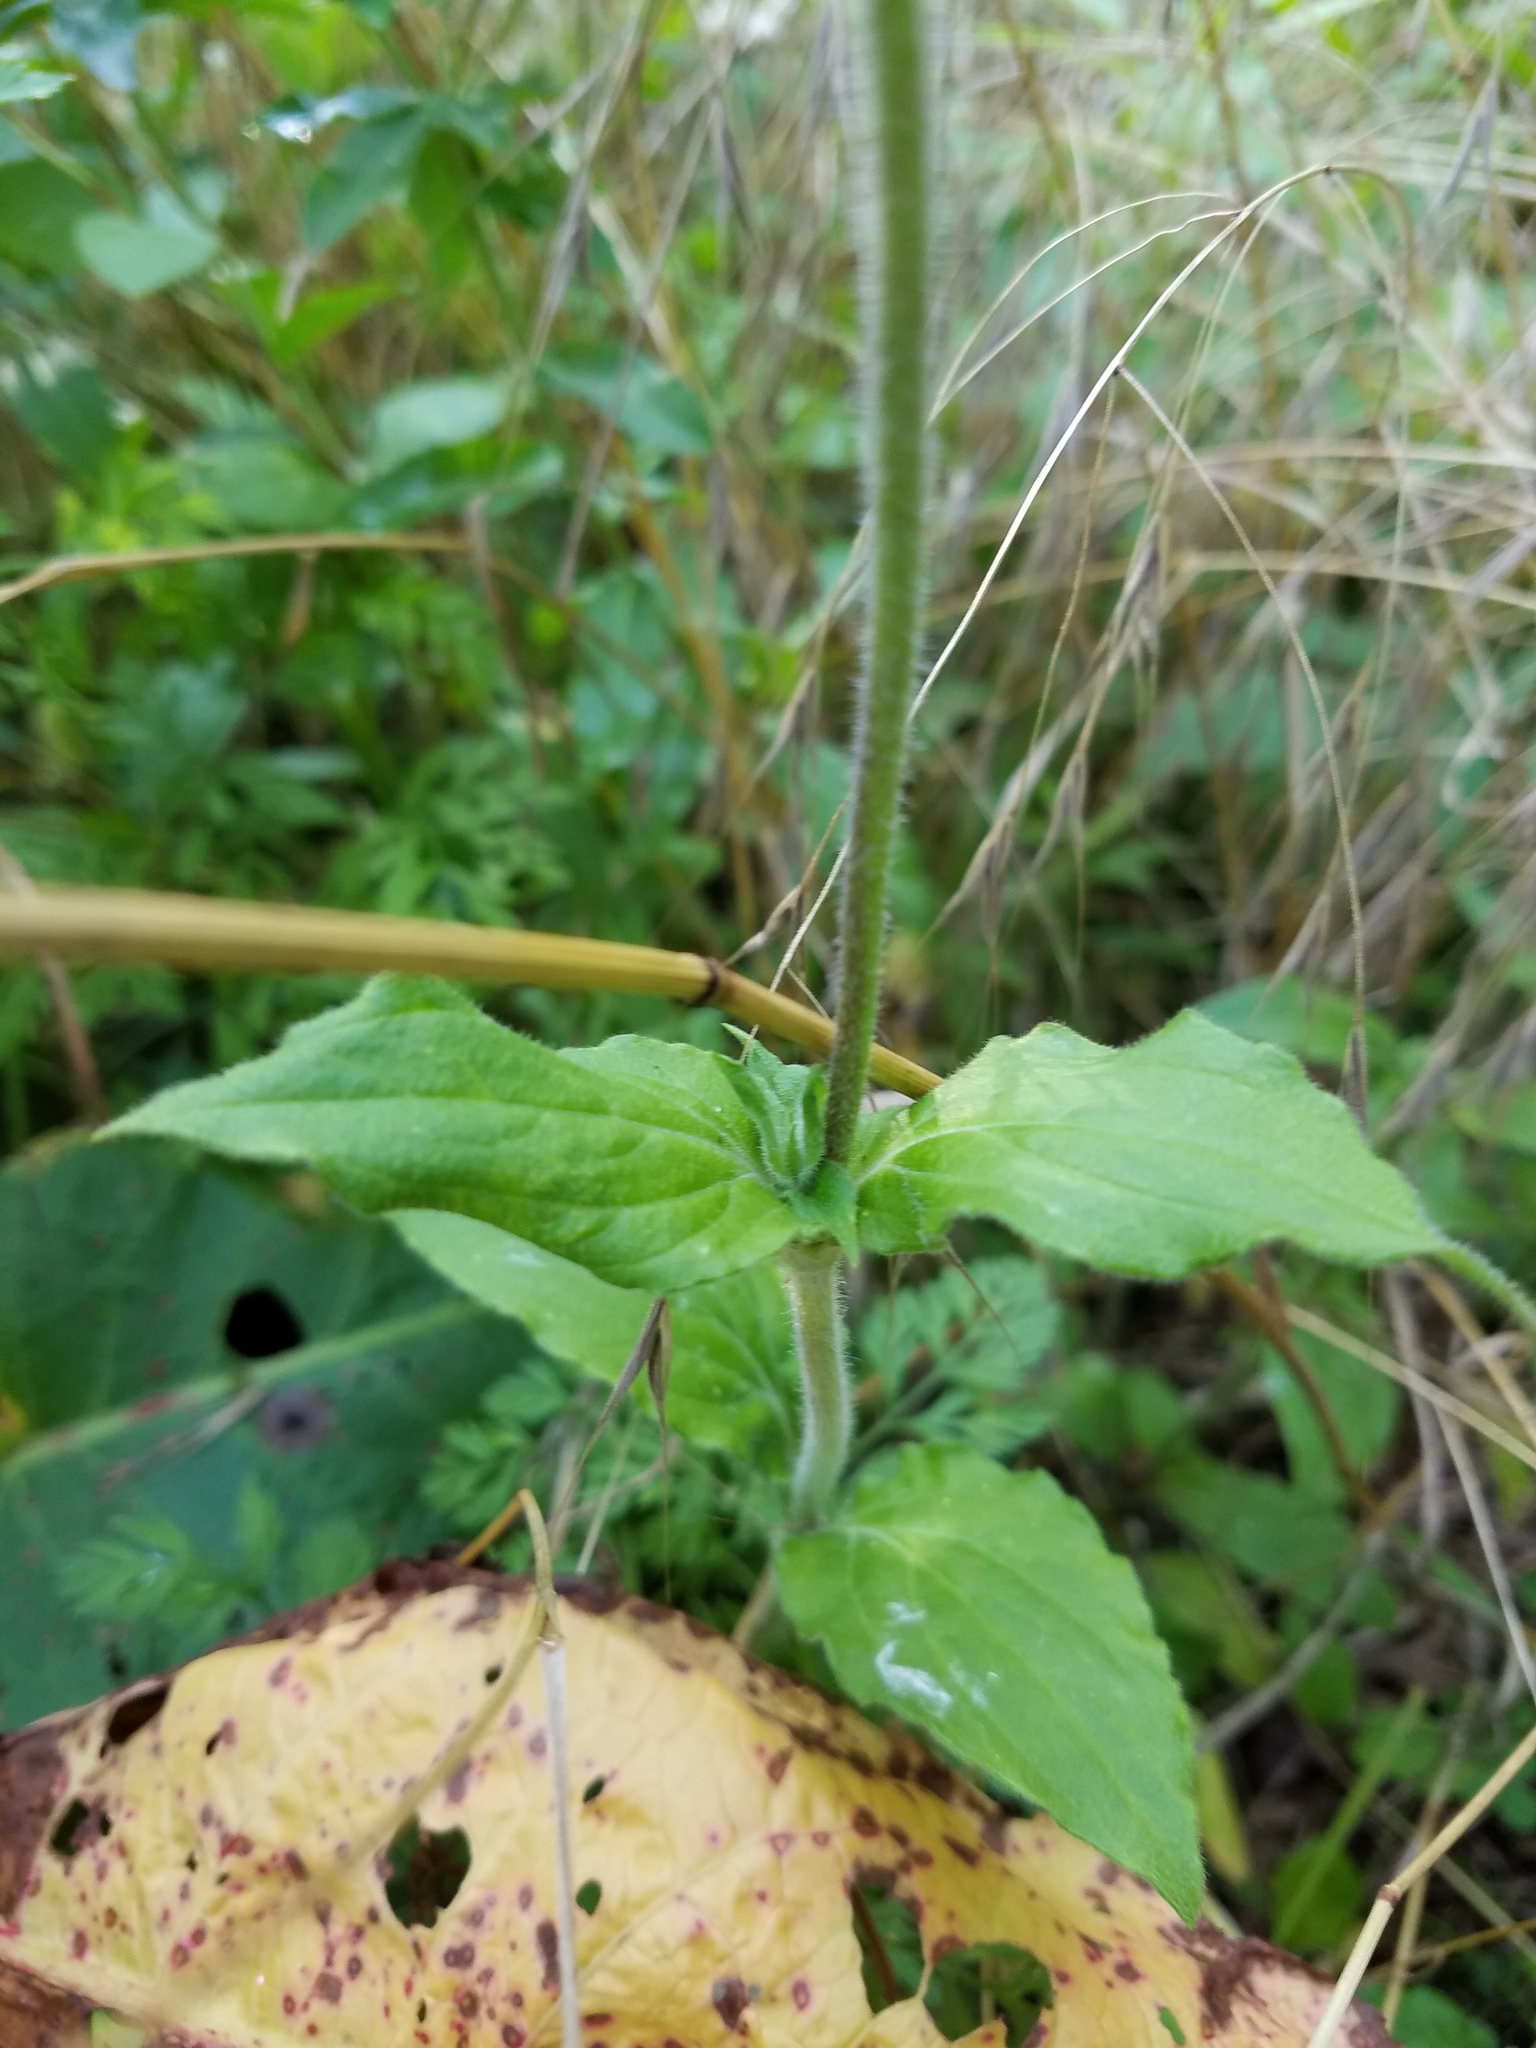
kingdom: Plantae
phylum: Tracheophyta
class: Magnoliopsida
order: Caryophyllales
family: Caryophyllaceae
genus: Silene
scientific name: Silene dioica
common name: Red campion
